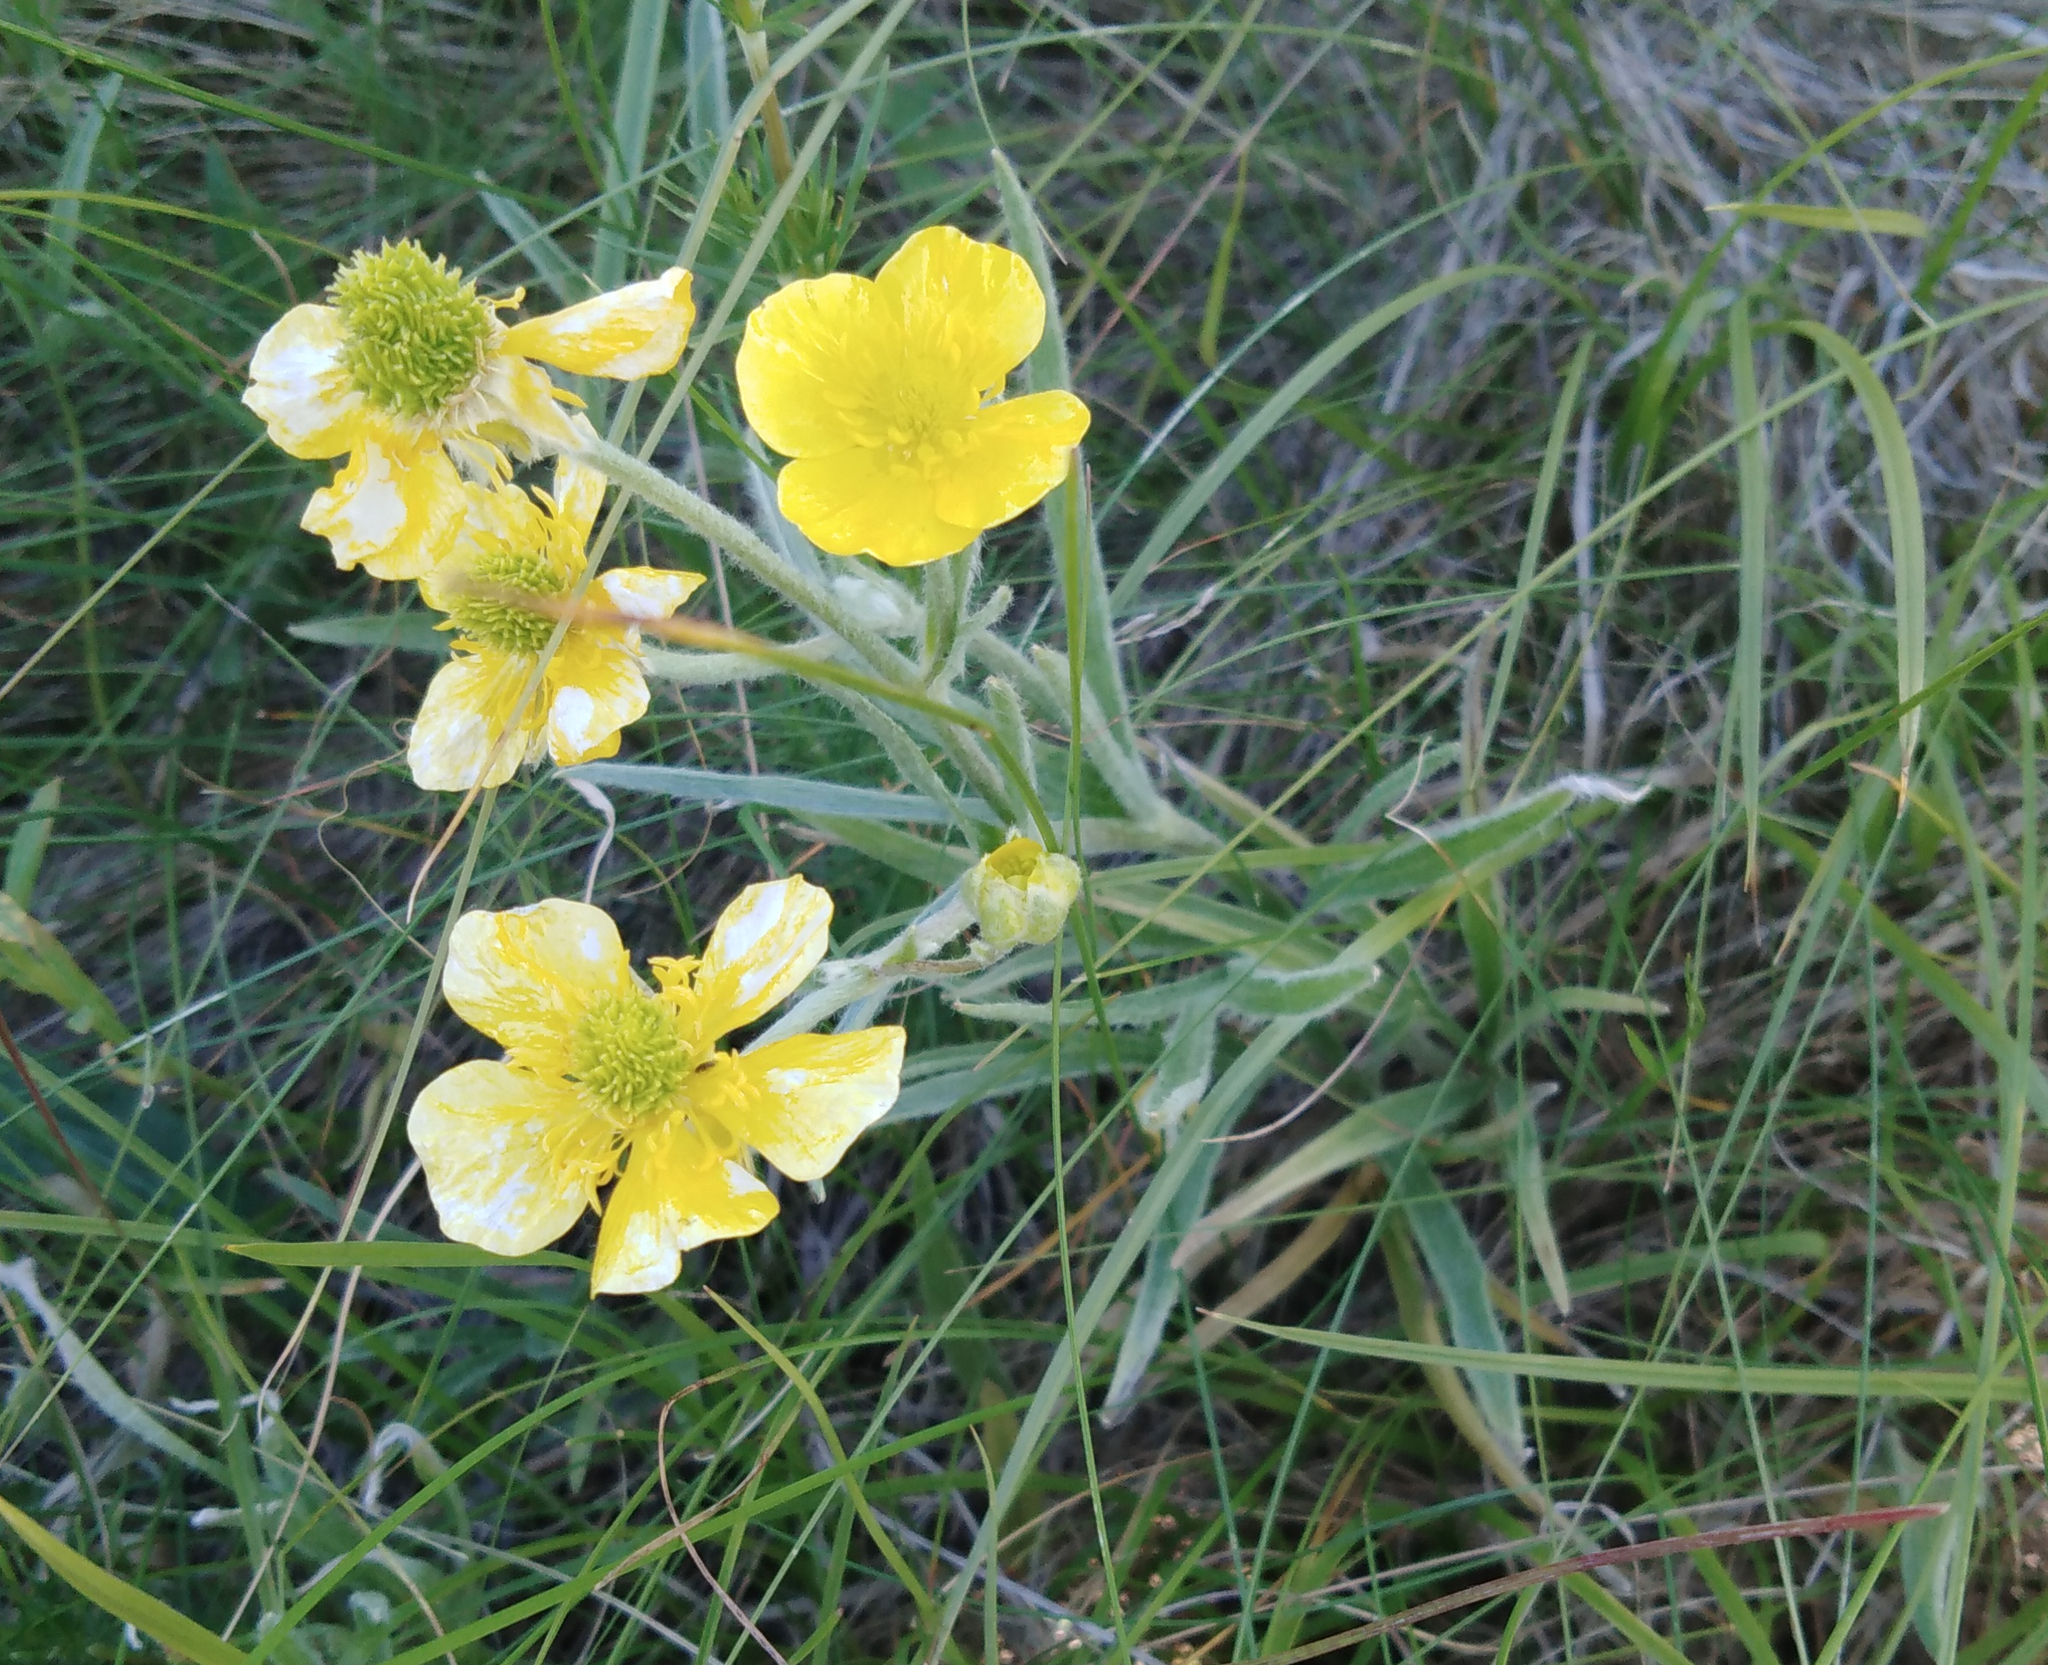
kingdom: Plantae
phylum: Tracheophyta
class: Magnoliopsida
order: Ranunculales
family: Ranunculaceae
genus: Ranunculus
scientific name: Ranunculus illyricus
